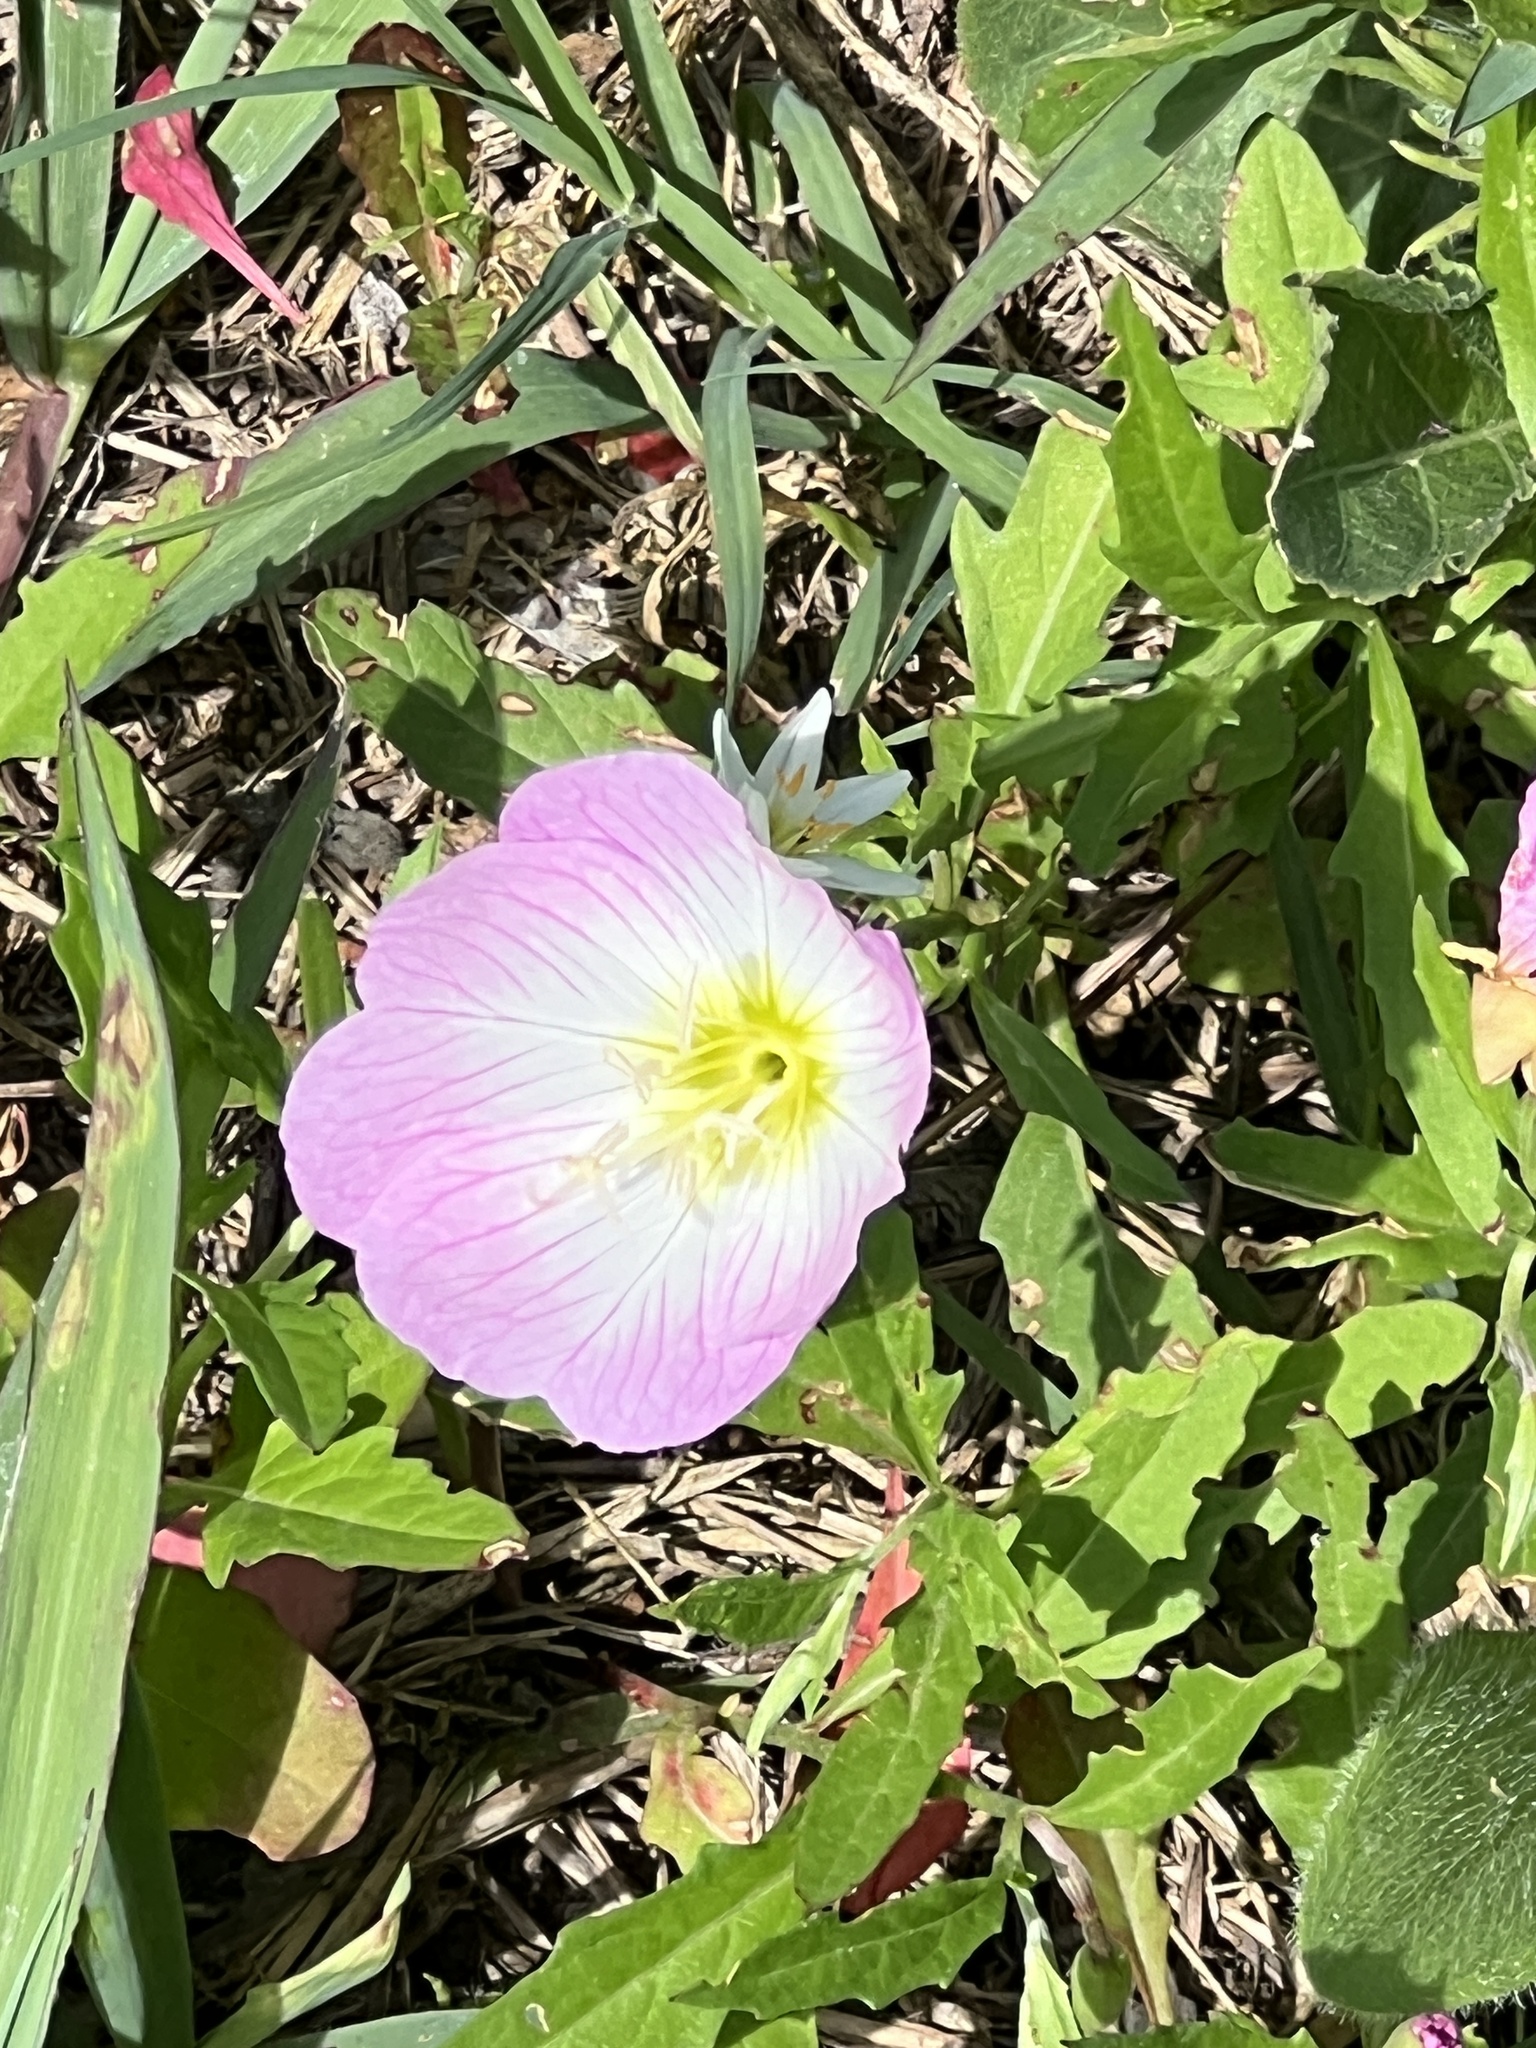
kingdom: Plantae
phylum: Tracheophyta
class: Magnoliopsida
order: Myrtales
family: Onagraceae
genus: Oenothera
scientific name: Oenothera speciosa
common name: White evening-primrose
